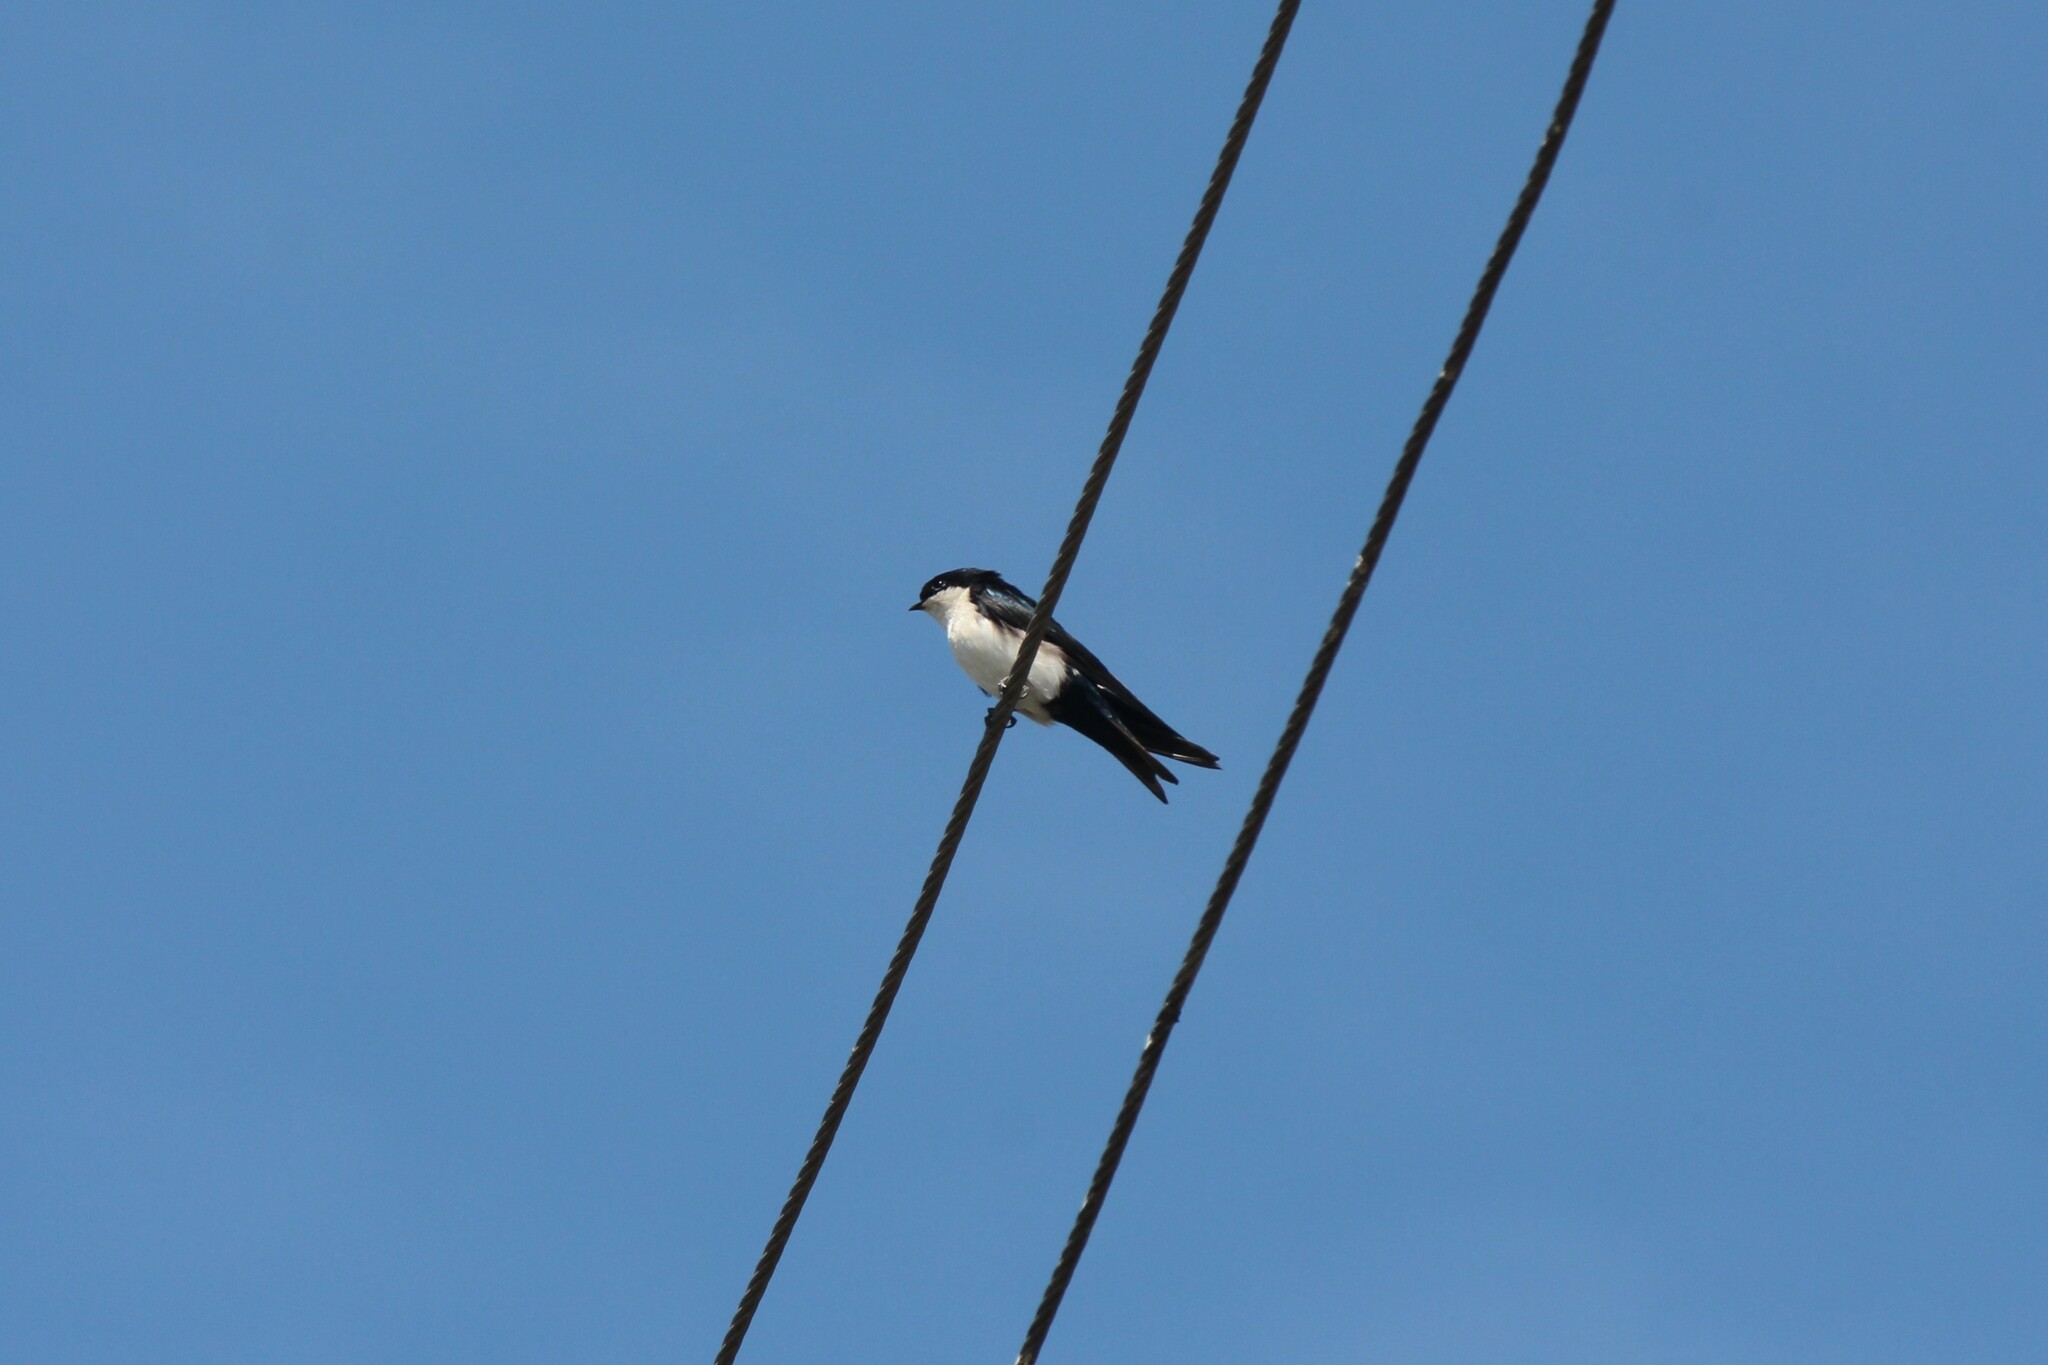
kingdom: Animalia
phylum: Chordata
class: Aves
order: Passeriformes
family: Hirundinidae
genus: Notiochelidon
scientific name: Notiochelidon cyanoleuca
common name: Blue-and-white swallow
